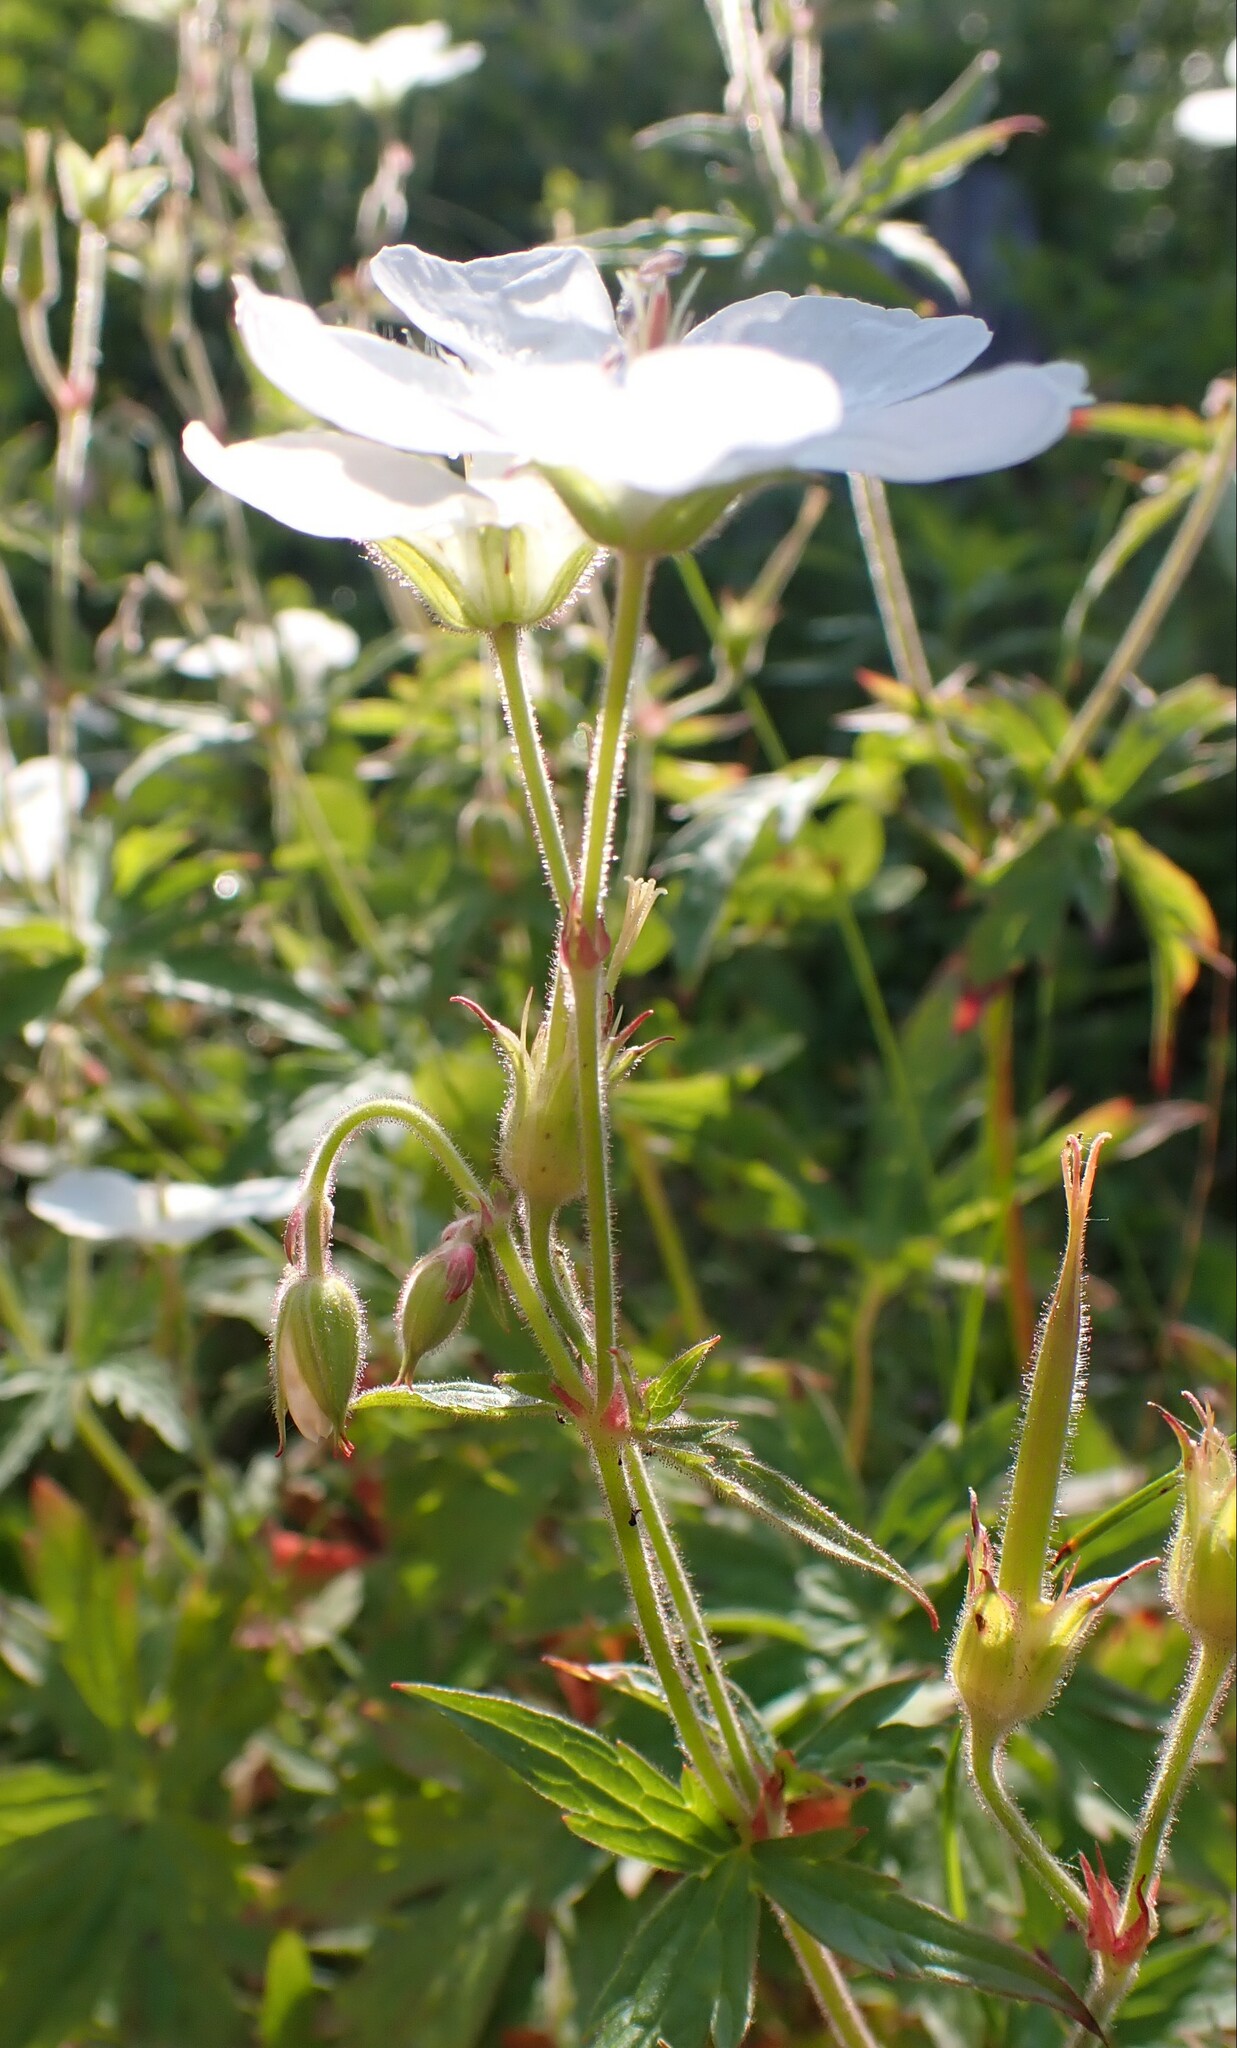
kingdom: Plantae
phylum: Tracheophyta
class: Magnoliopsida
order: Geraniales
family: Geraniaceae
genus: Geranium
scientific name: Geranium richardsonii
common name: Richardson's crane's-bill
